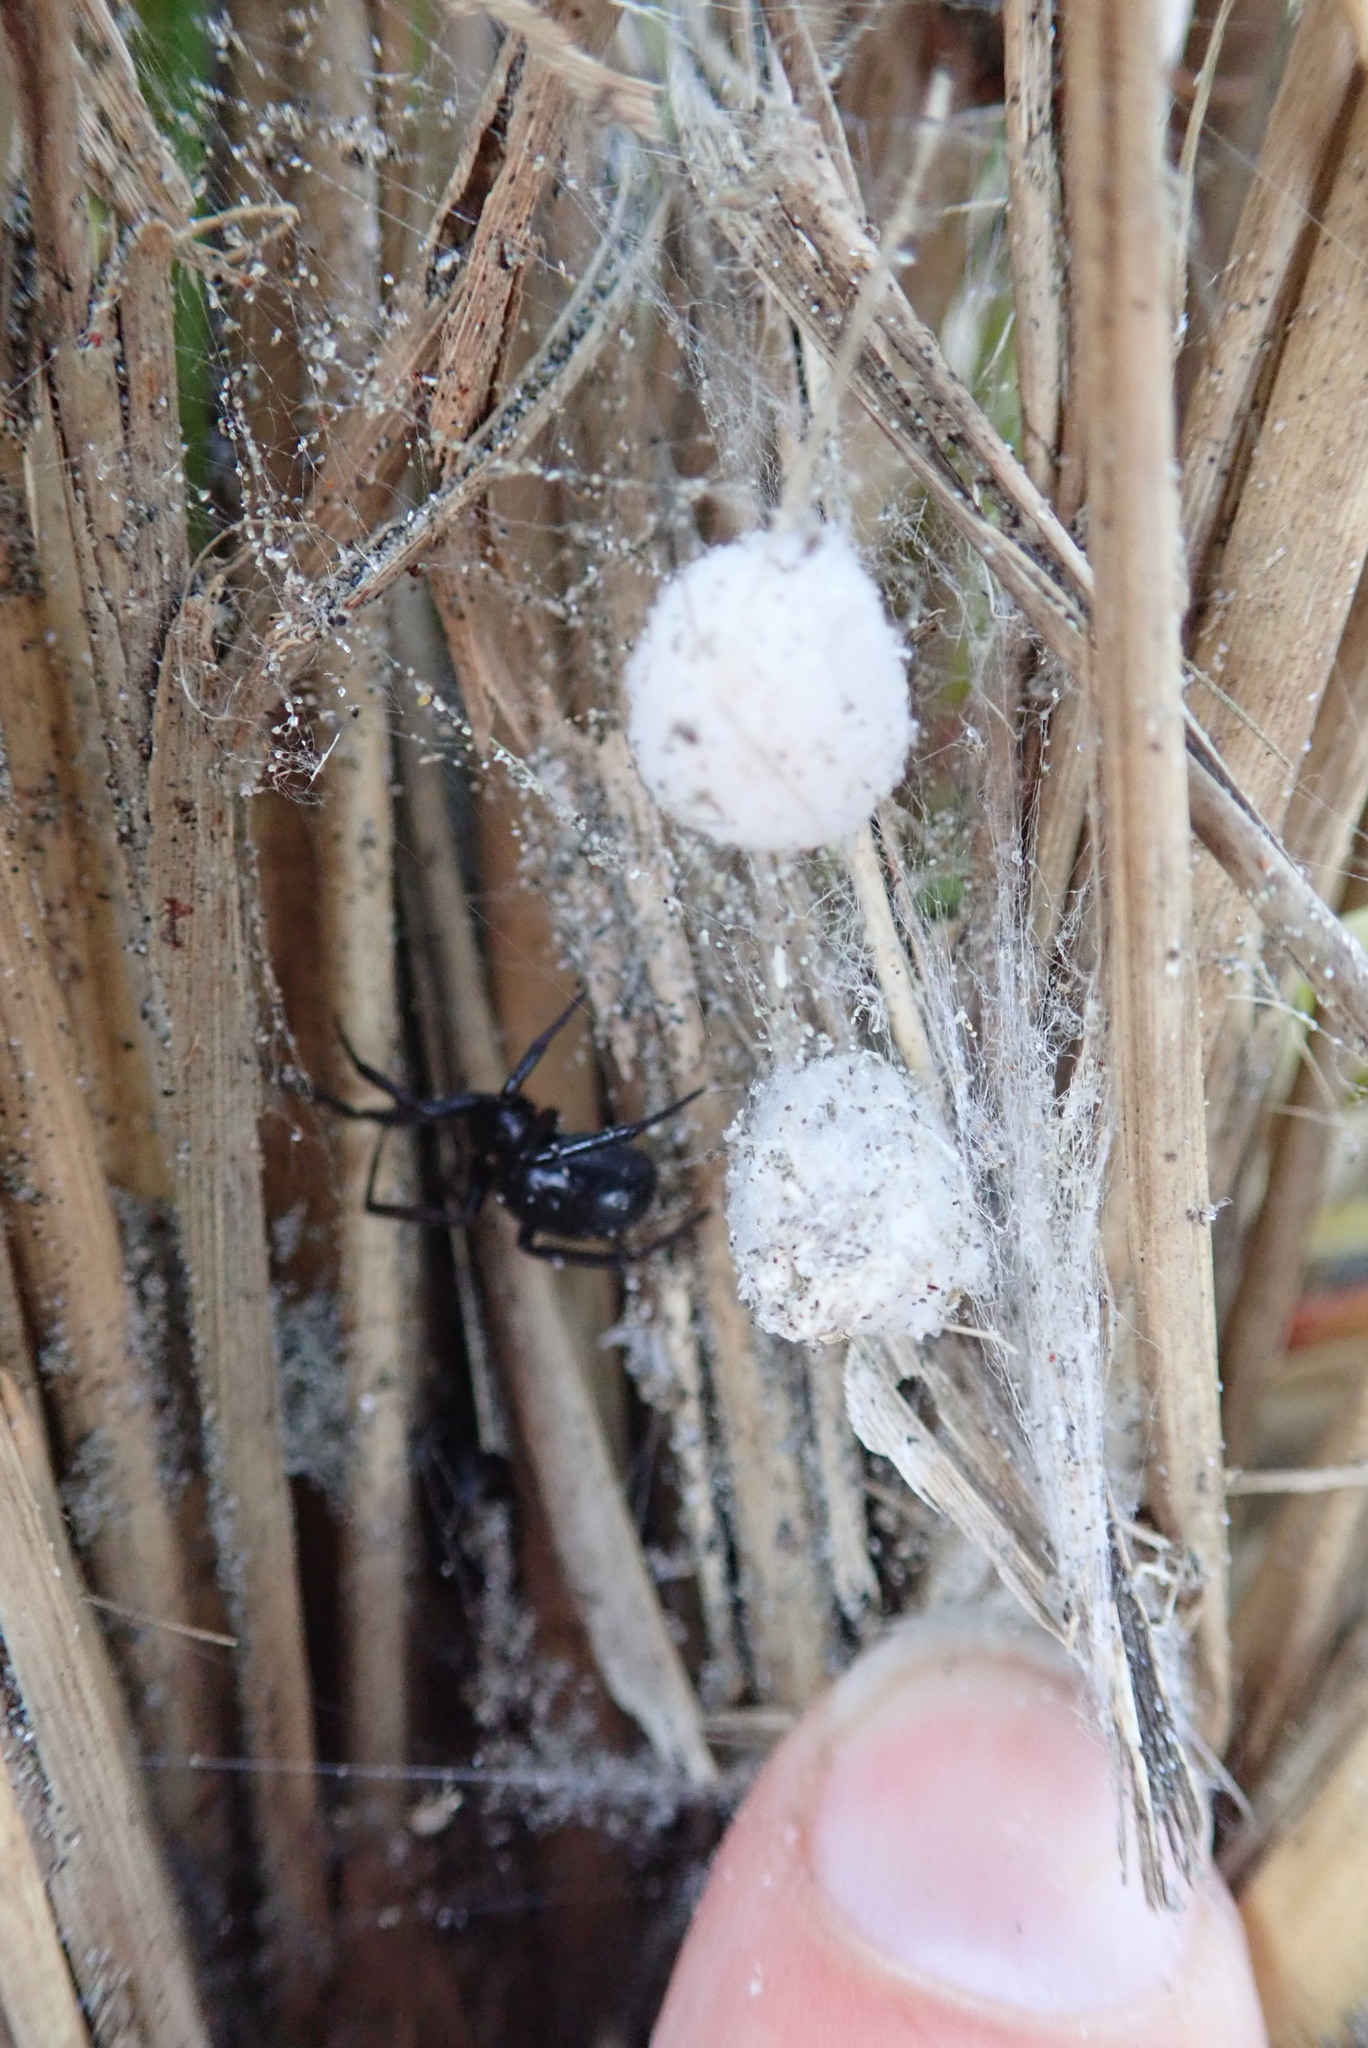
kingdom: Animalia
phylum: Arthropoda
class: Arachnida
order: Araneae
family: Theridiidae
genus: Steatoda
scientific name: Steatoda capensis
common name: Cobweb weaver
